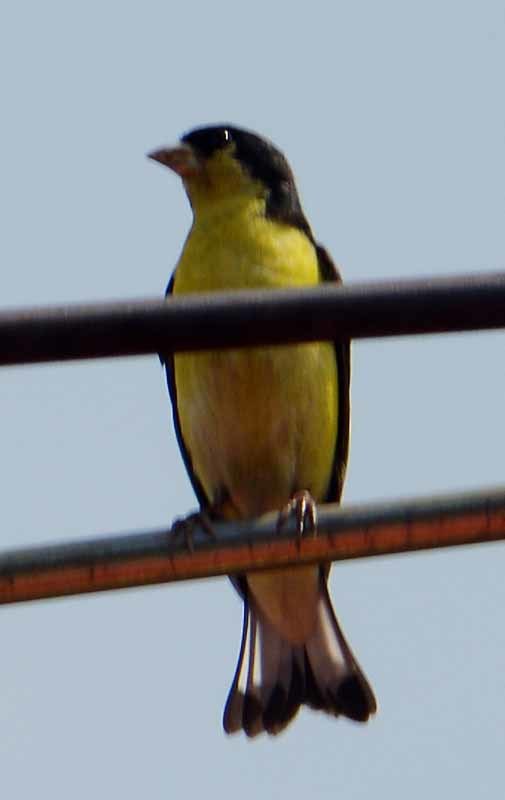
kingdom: Animalia
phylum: Chordata
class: Aves
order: Passeriformes
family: Fringillidae
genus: Spinus
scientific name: Spinus psaltria
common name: Lesser goldfinch
